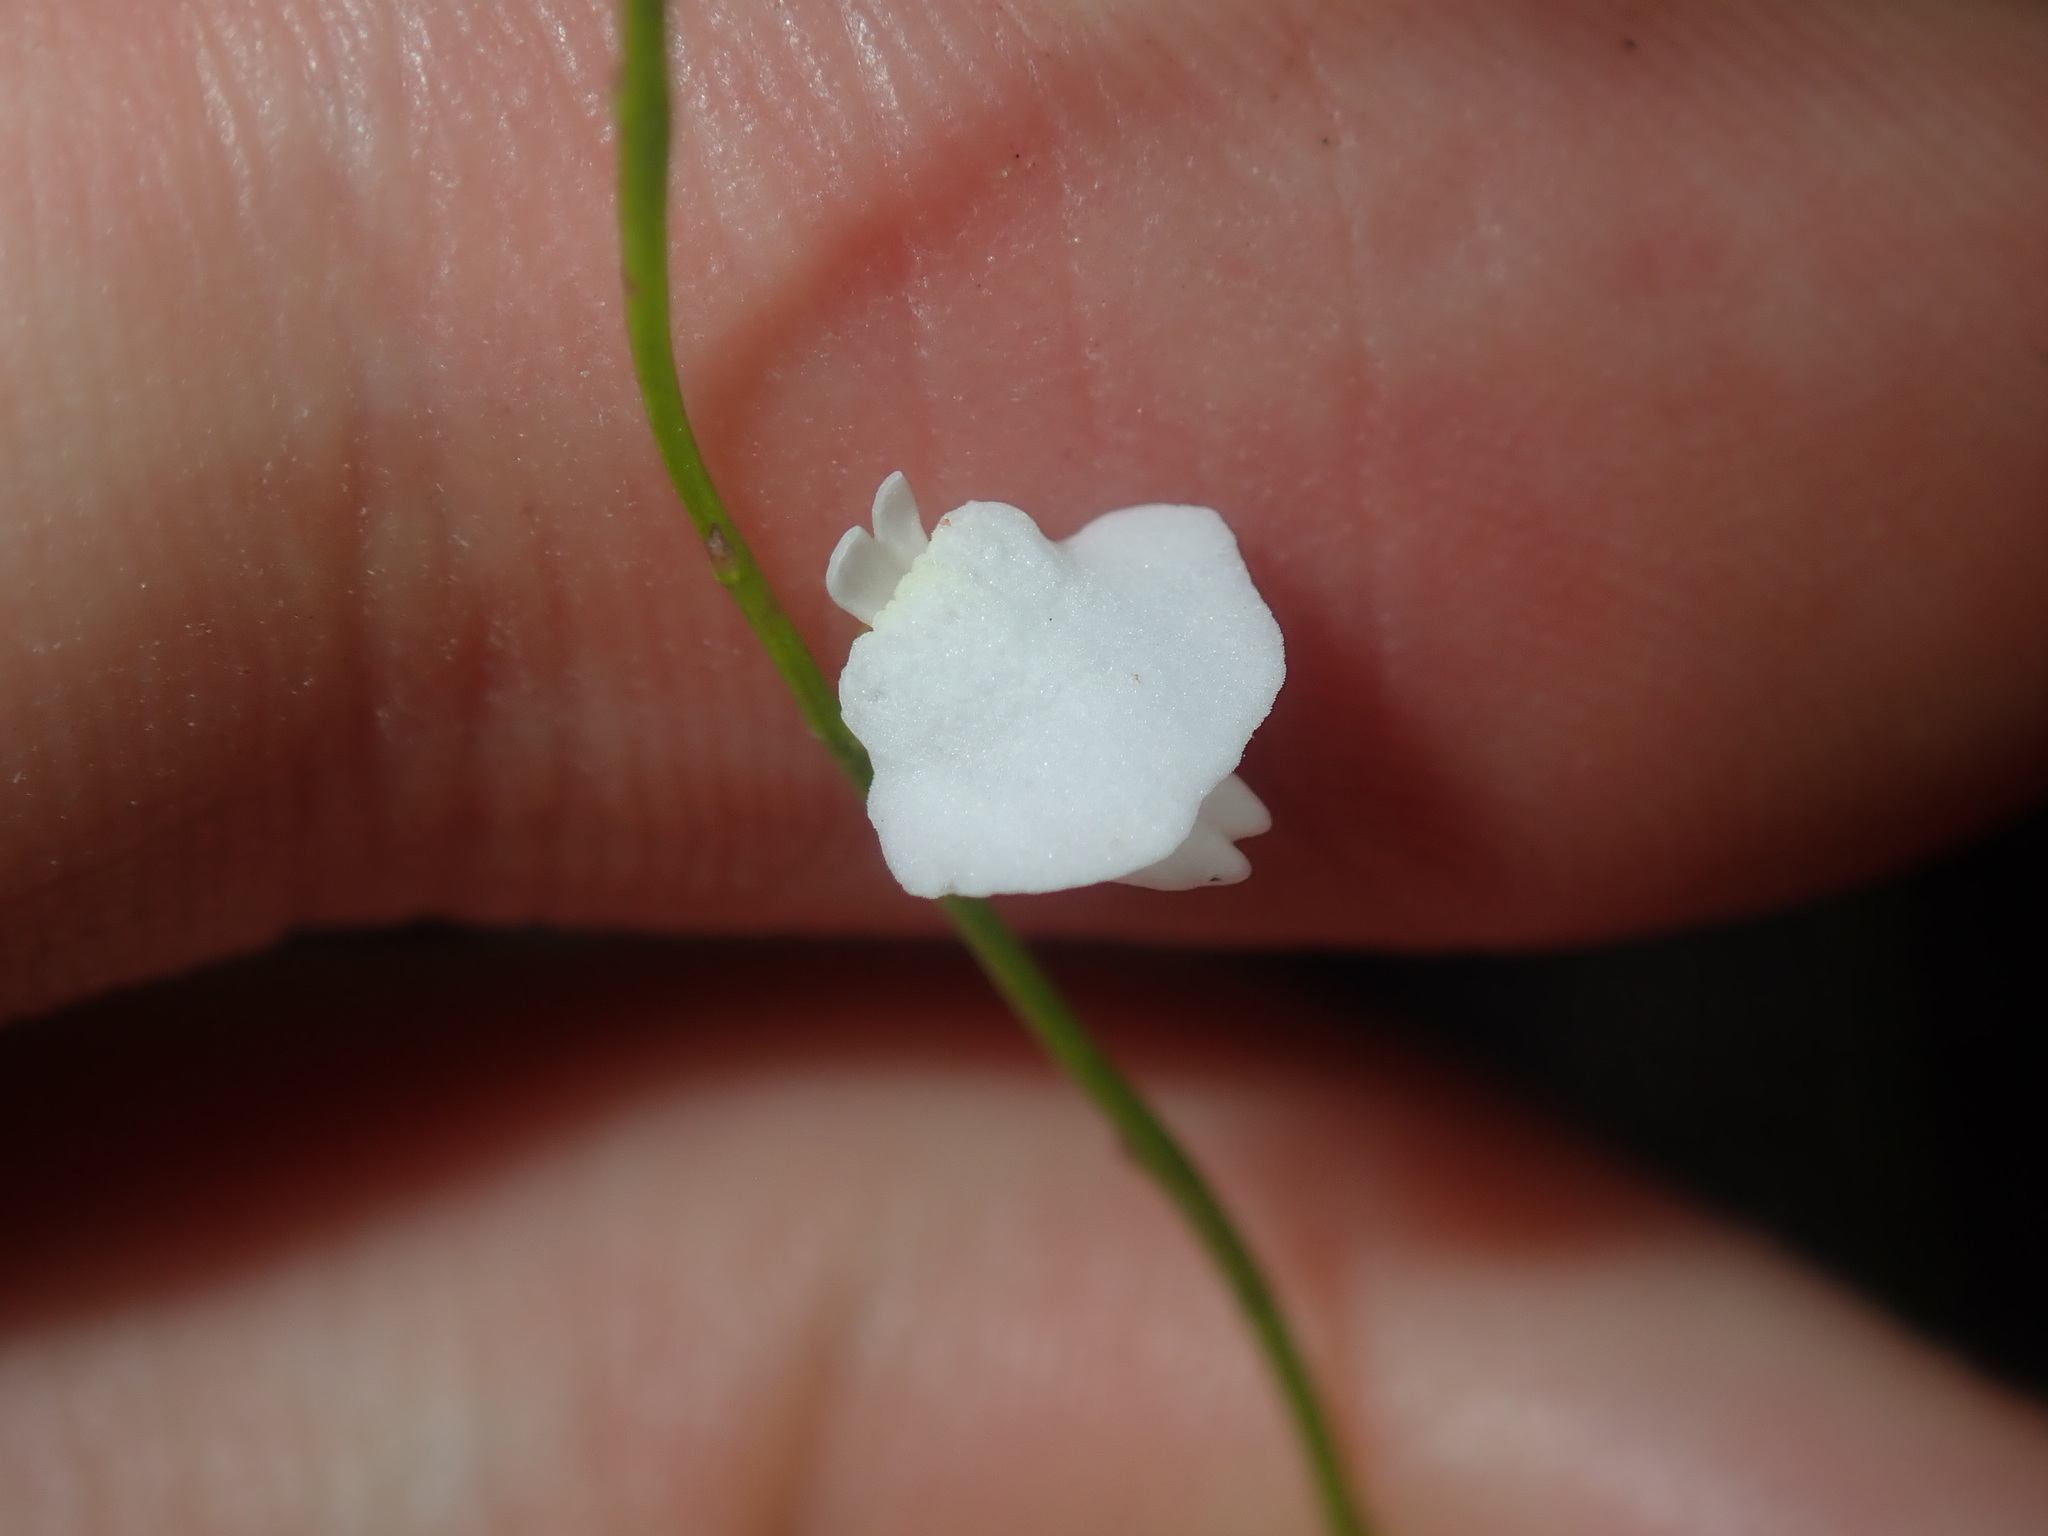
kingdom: Plantae
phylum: Tracheophyta
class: Magnoliopsida
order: Lamiales
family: Lentibulariaceae
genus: Utricularia
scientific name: Utricularia lateriflora
